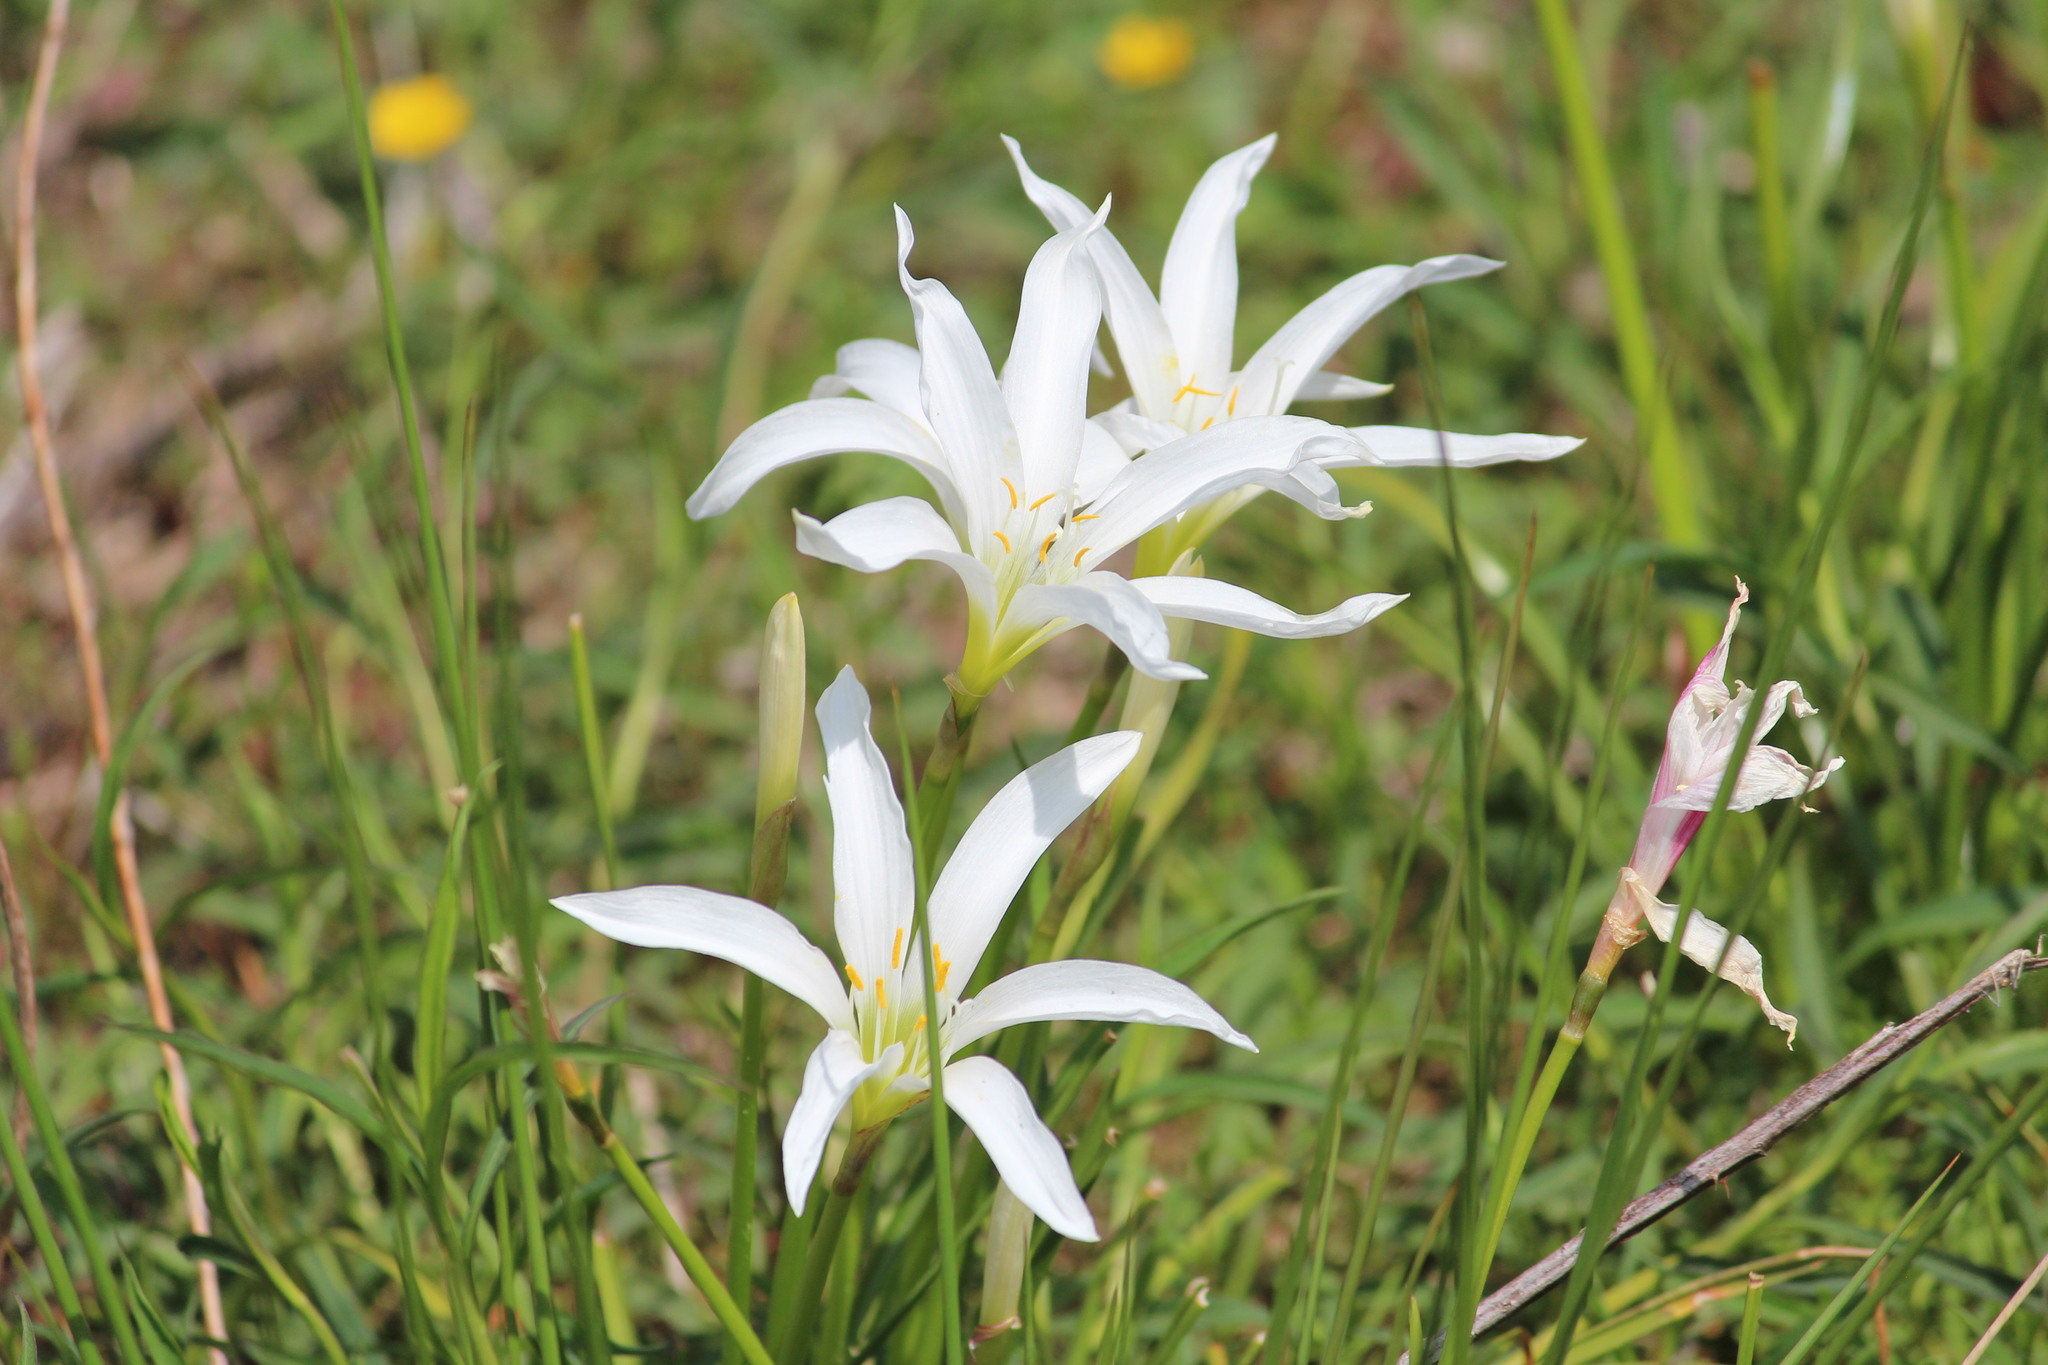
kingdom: Plantae
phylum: Tracheophyta
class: Liliopsida
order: Asparagales
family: Amaryllidaceae
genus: Zephyranthes
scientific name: Zephyranthes atamasco
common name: Atamasco lily
